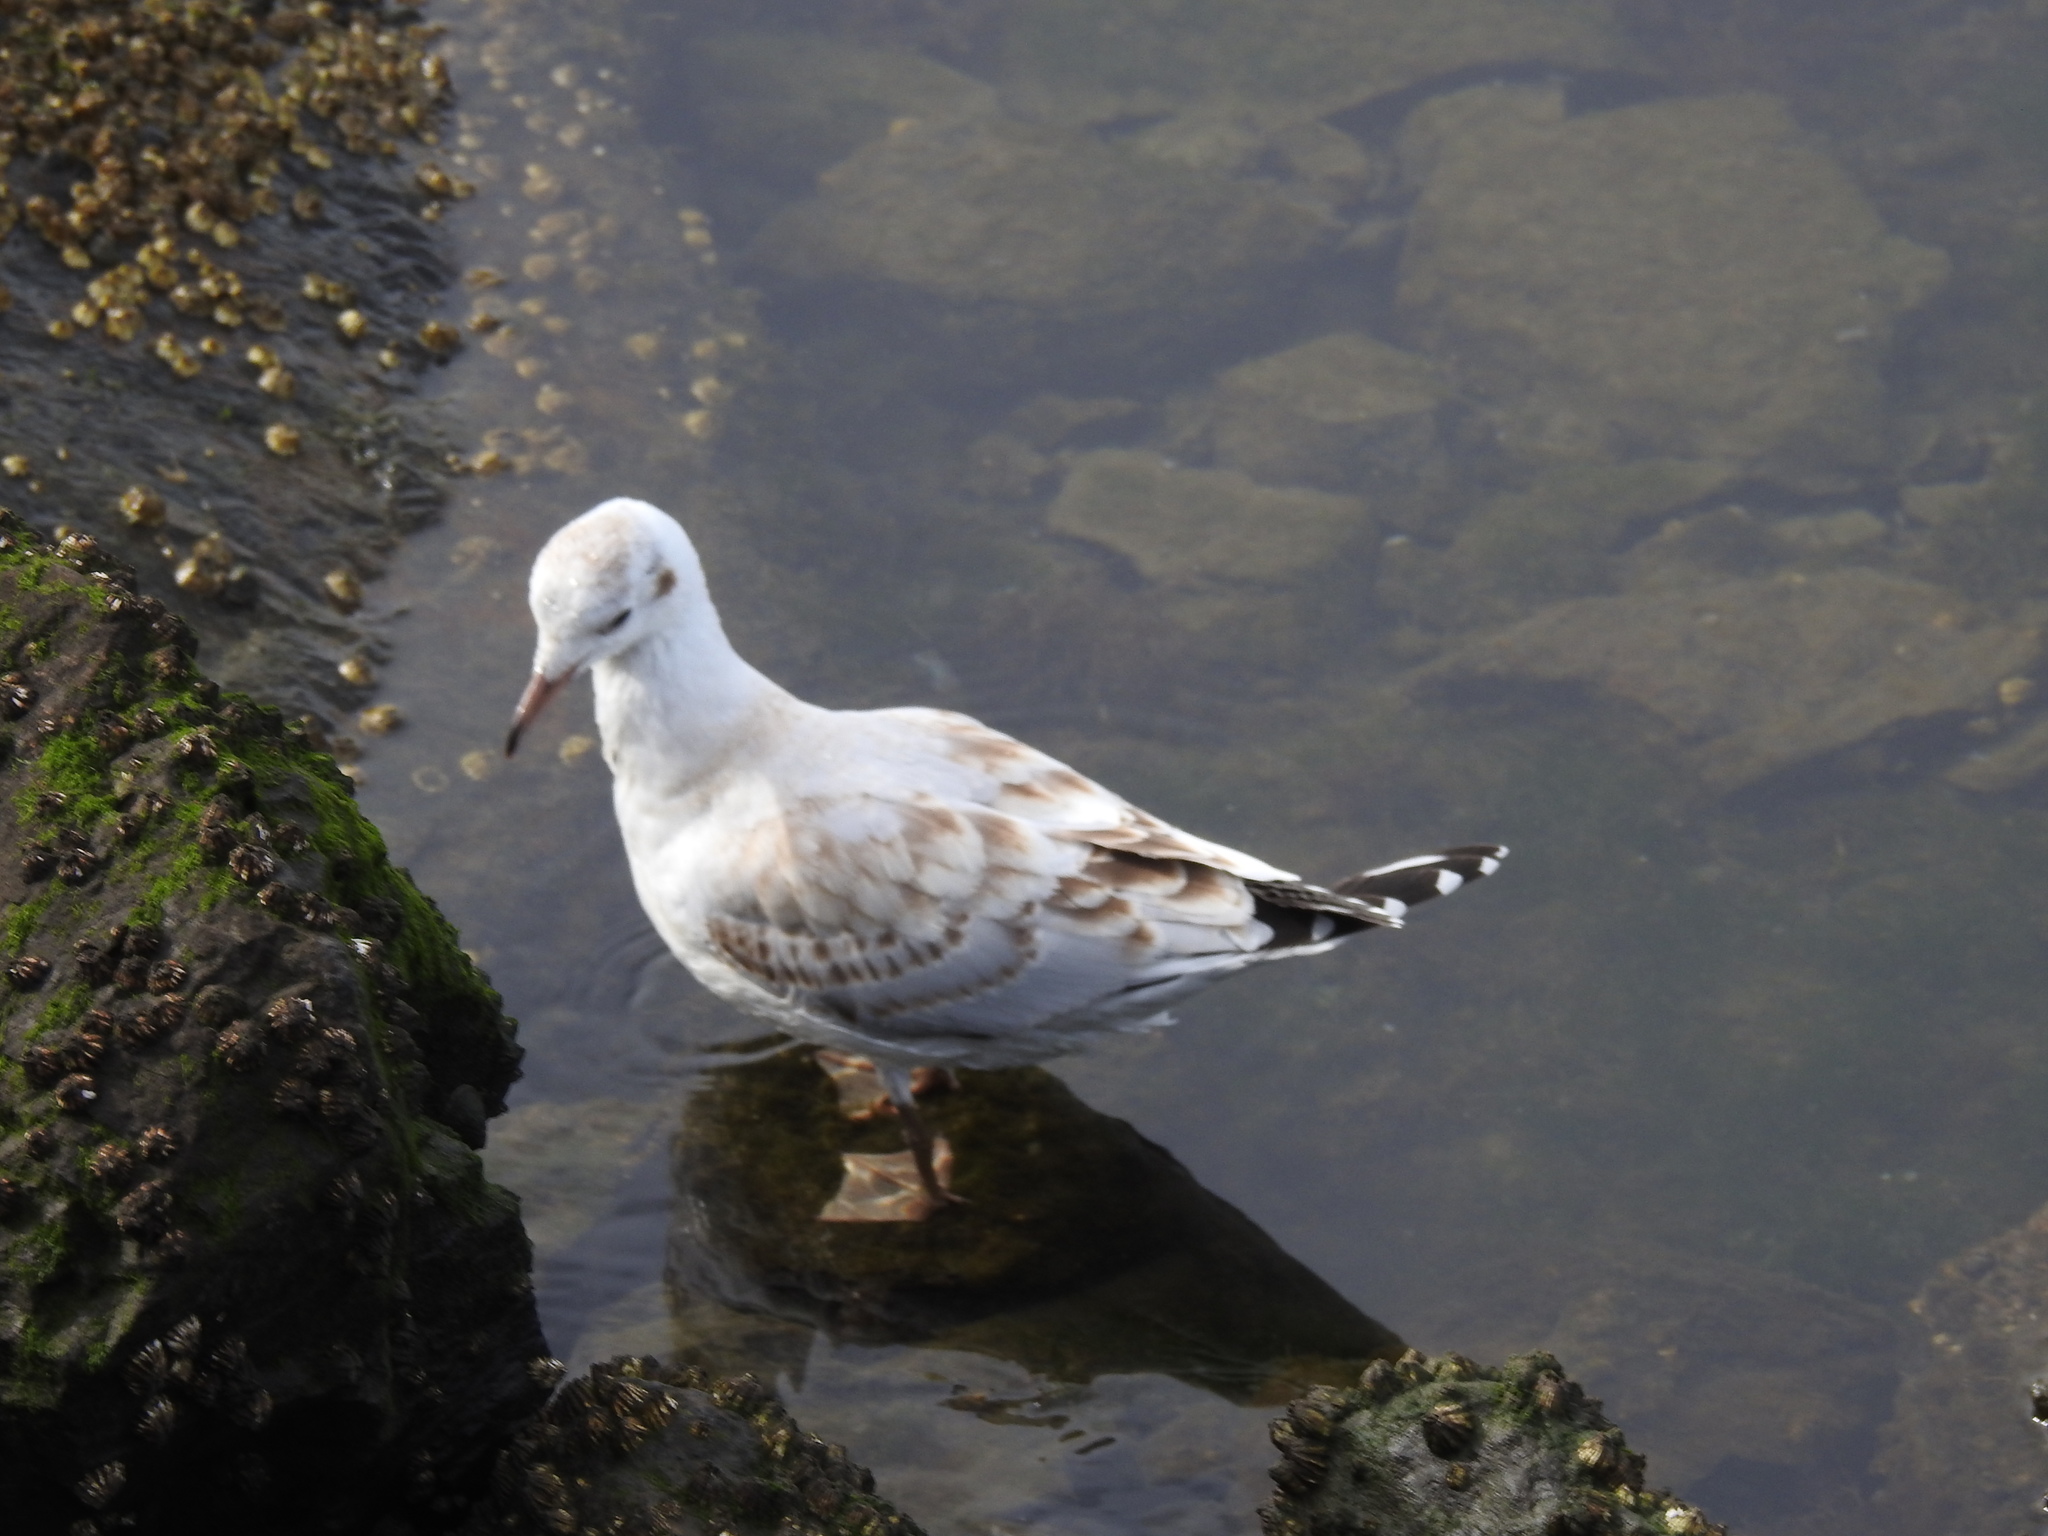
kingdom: Animalia
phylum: Chordata
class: Aves
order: Charadriiformes
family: Laridae
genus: Chroicocephalus
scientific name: Chroicocephalus maculipennis
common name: Brown-hooded gull
